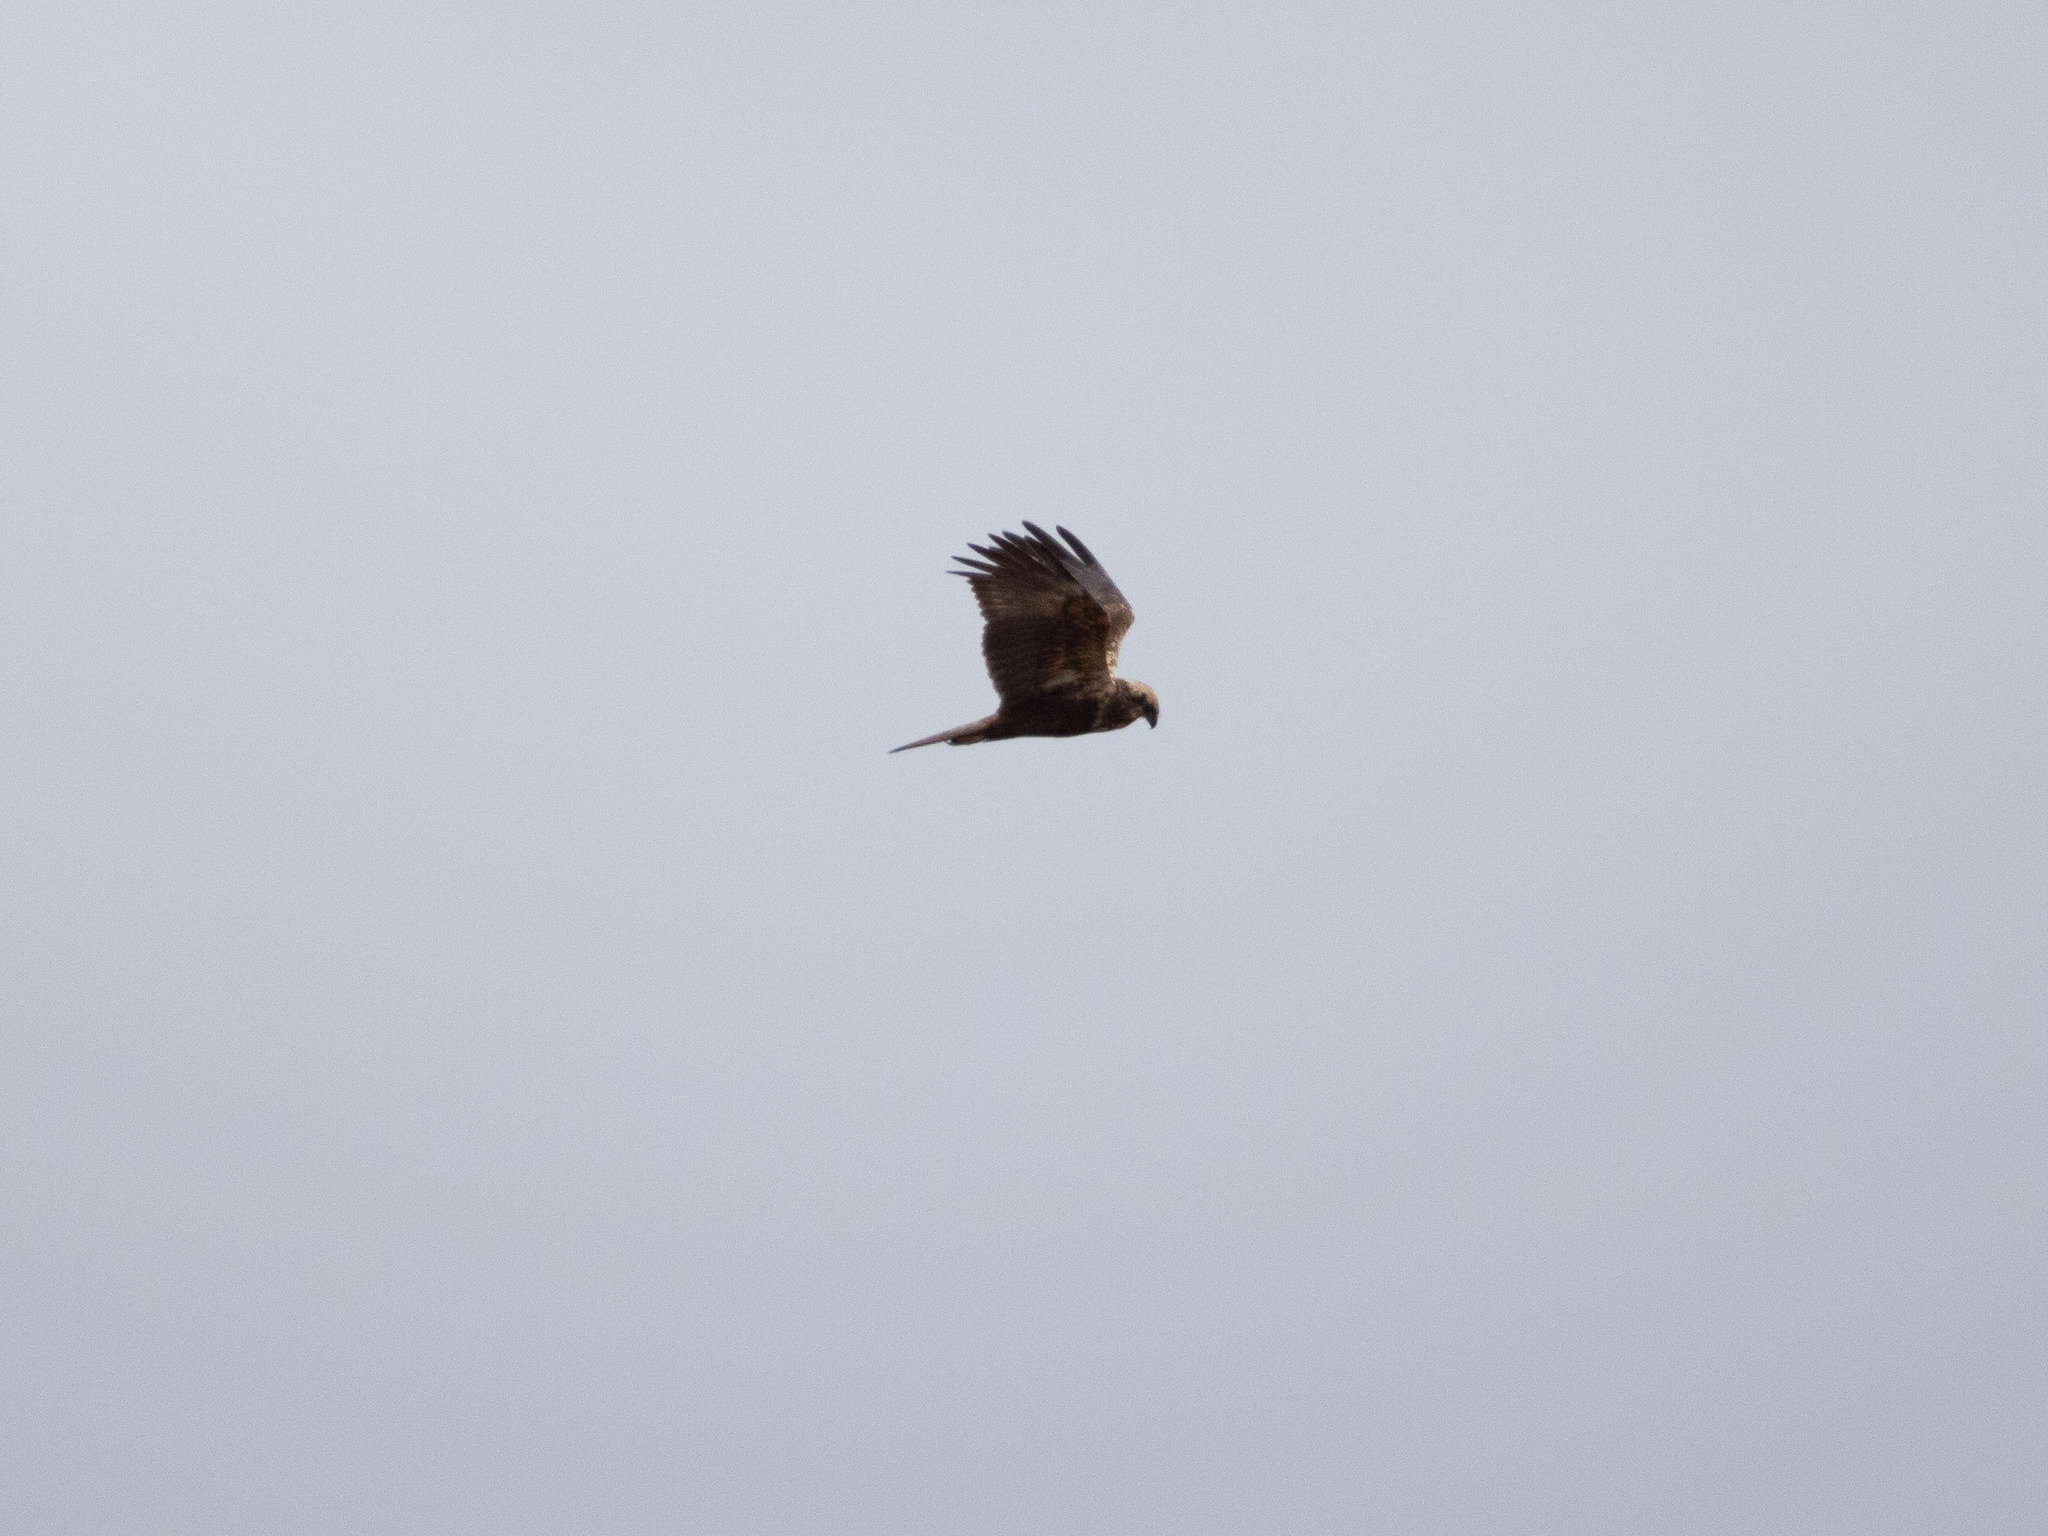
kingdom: Animalia
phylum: Chordata
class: Aves
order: Accipitriformes
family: Accipitridae
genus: Circus
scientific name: Circus aeruginosus
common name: Western marsh harrier
